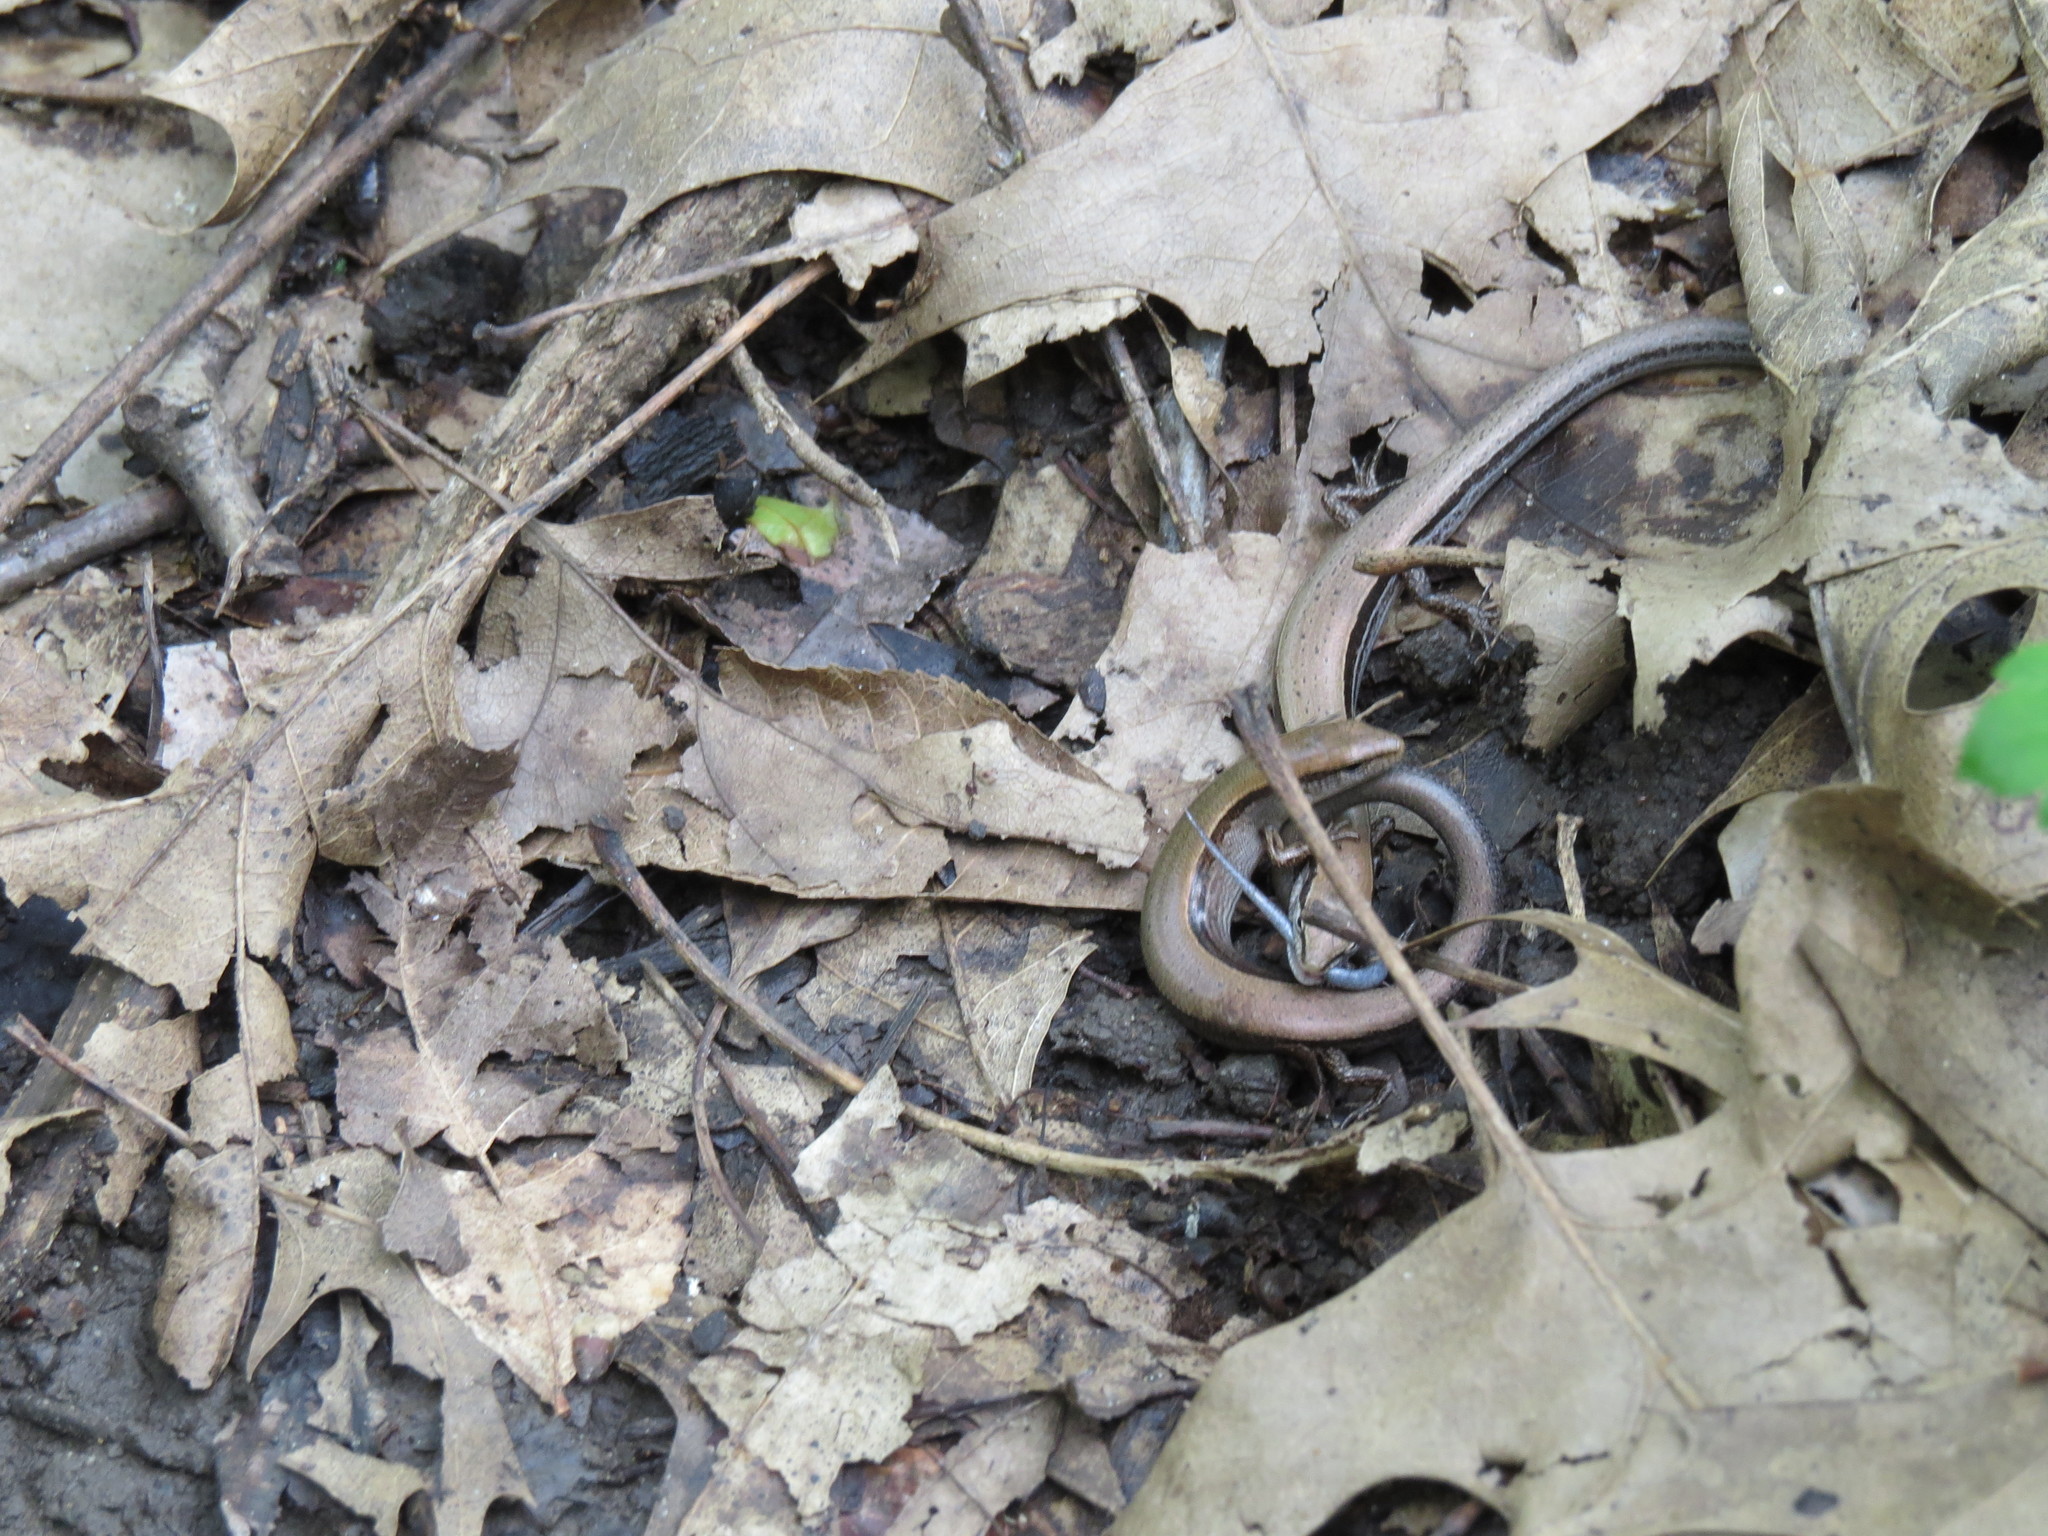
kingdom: Animalia
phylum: Chordata
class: Squamata
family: Scincidae
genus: Scincella
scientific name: Scincella lateralis
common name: Ground skink
